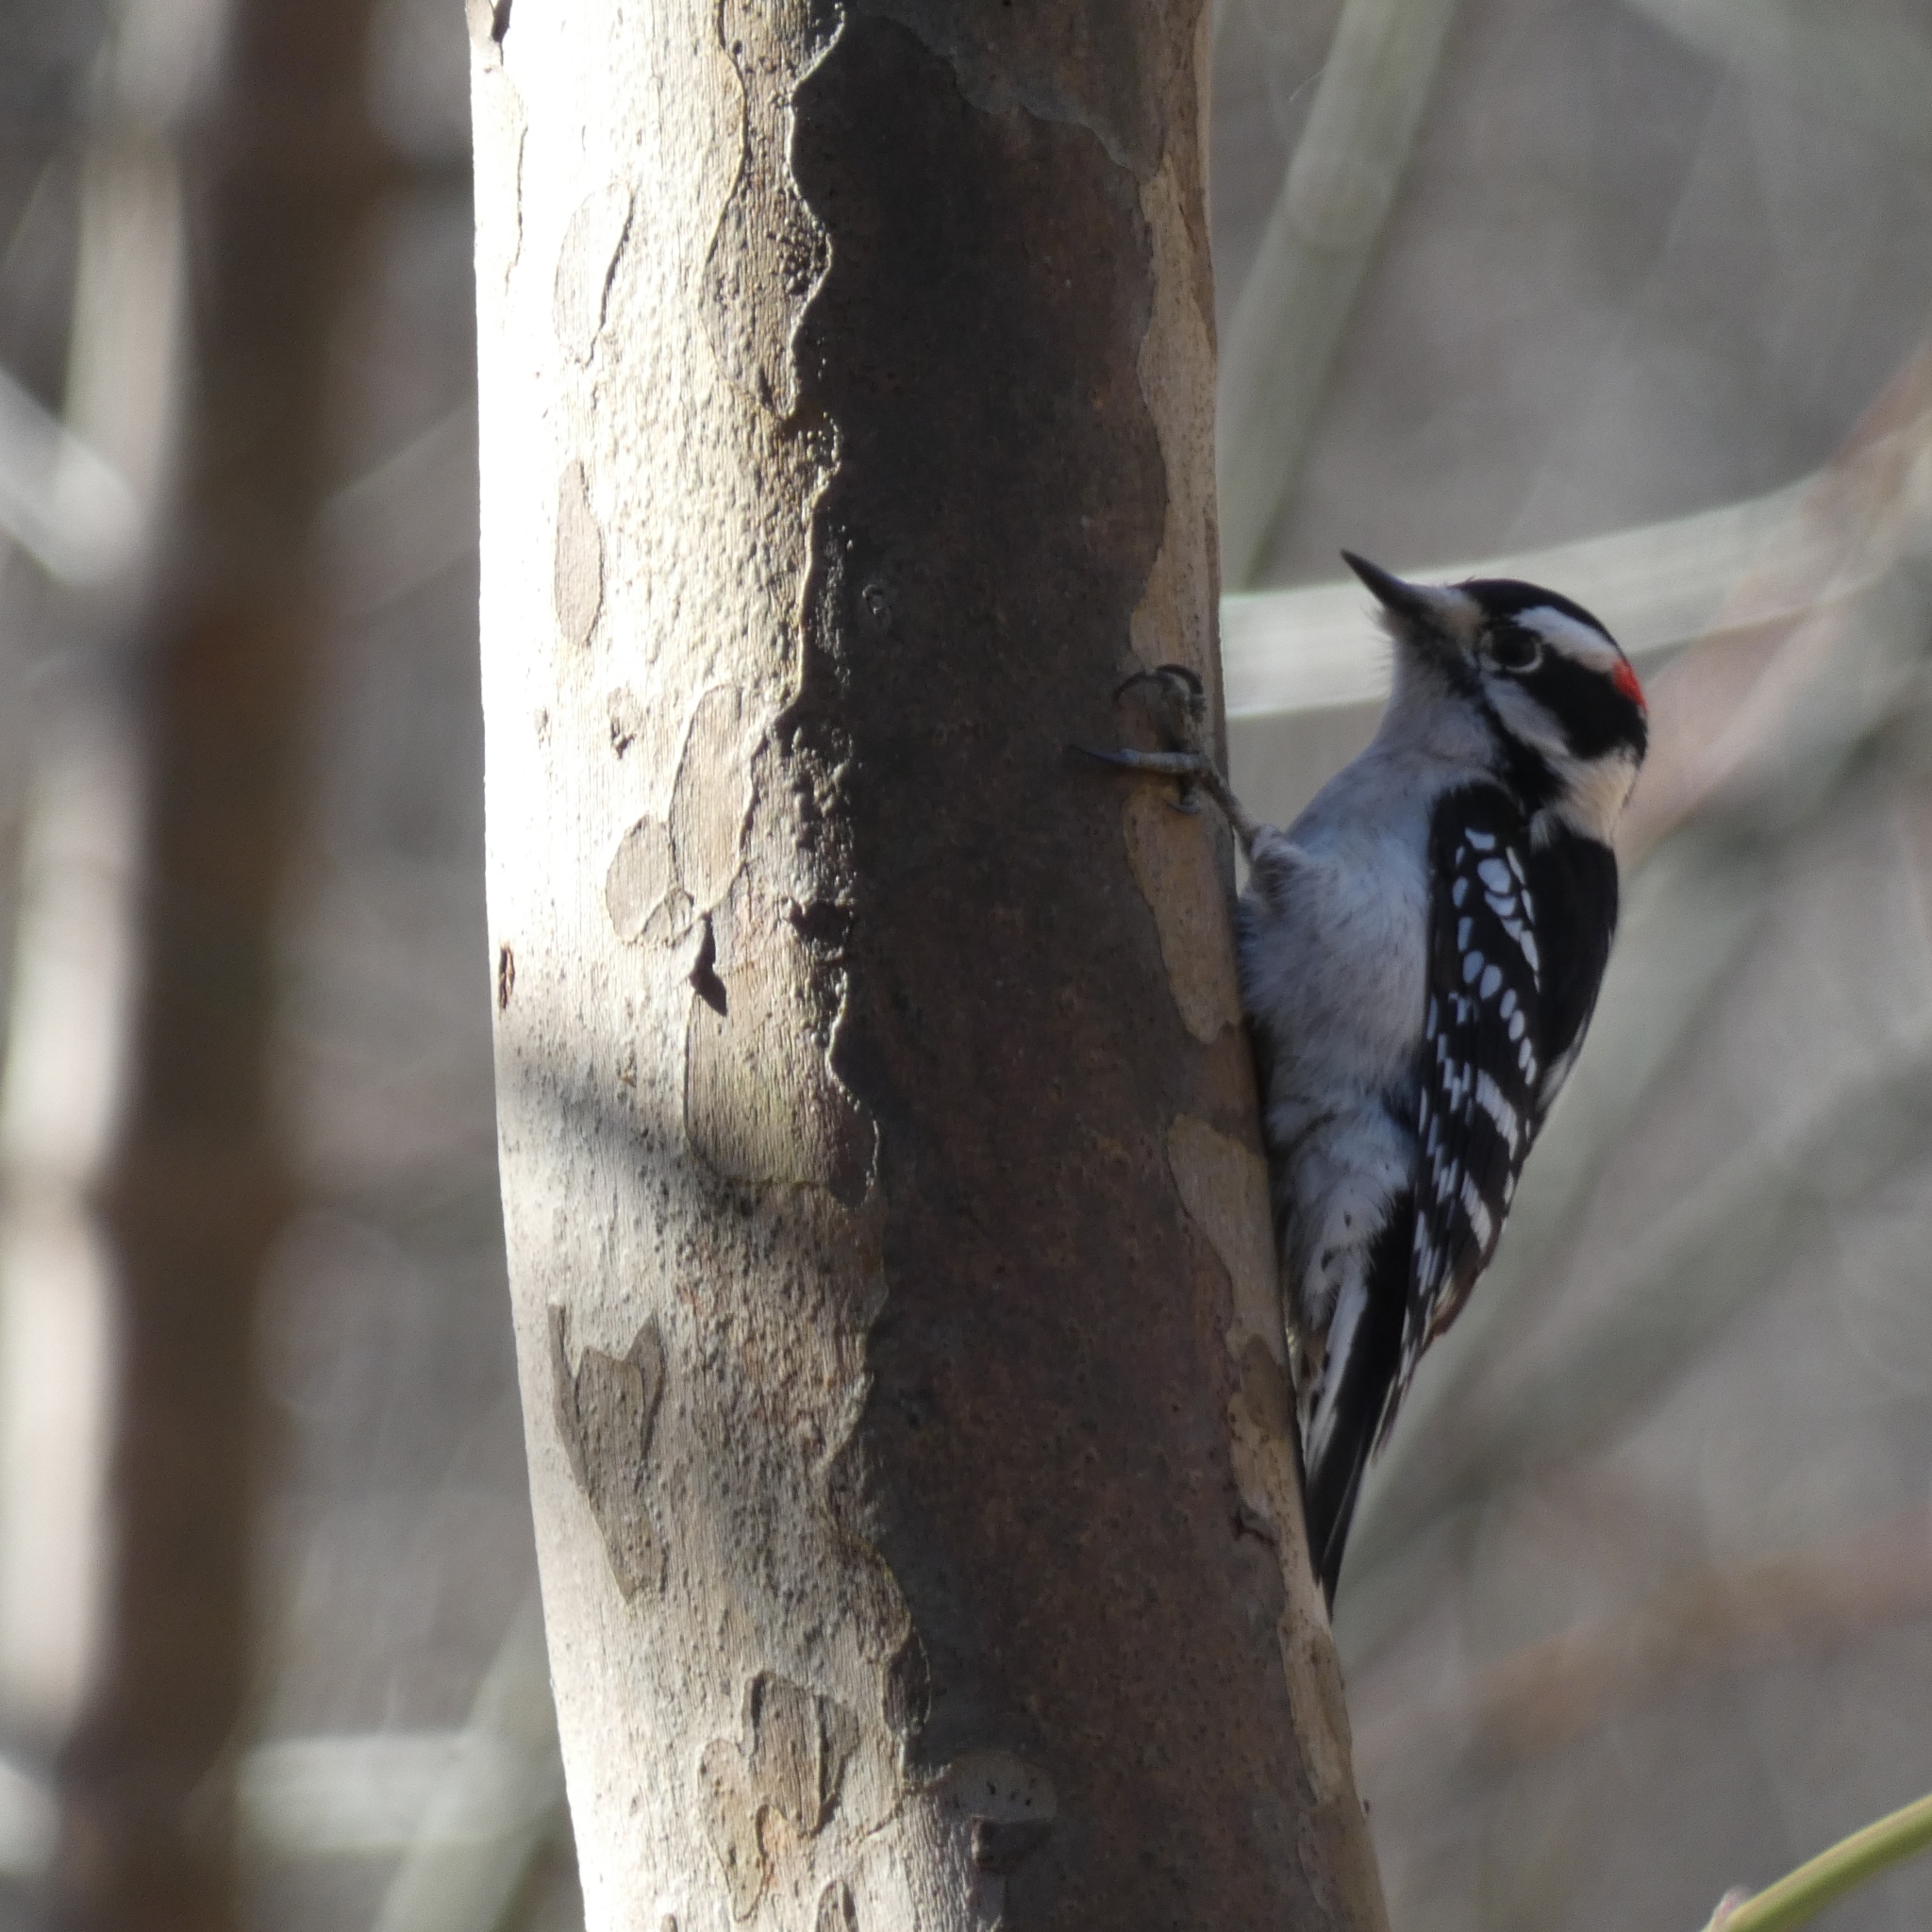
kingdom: Animalia
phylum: Chordata
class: Aves
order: Piciformes
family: Picidae
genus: Dryobates
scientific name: Dryobates pubescens
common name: Downy woodpecker
